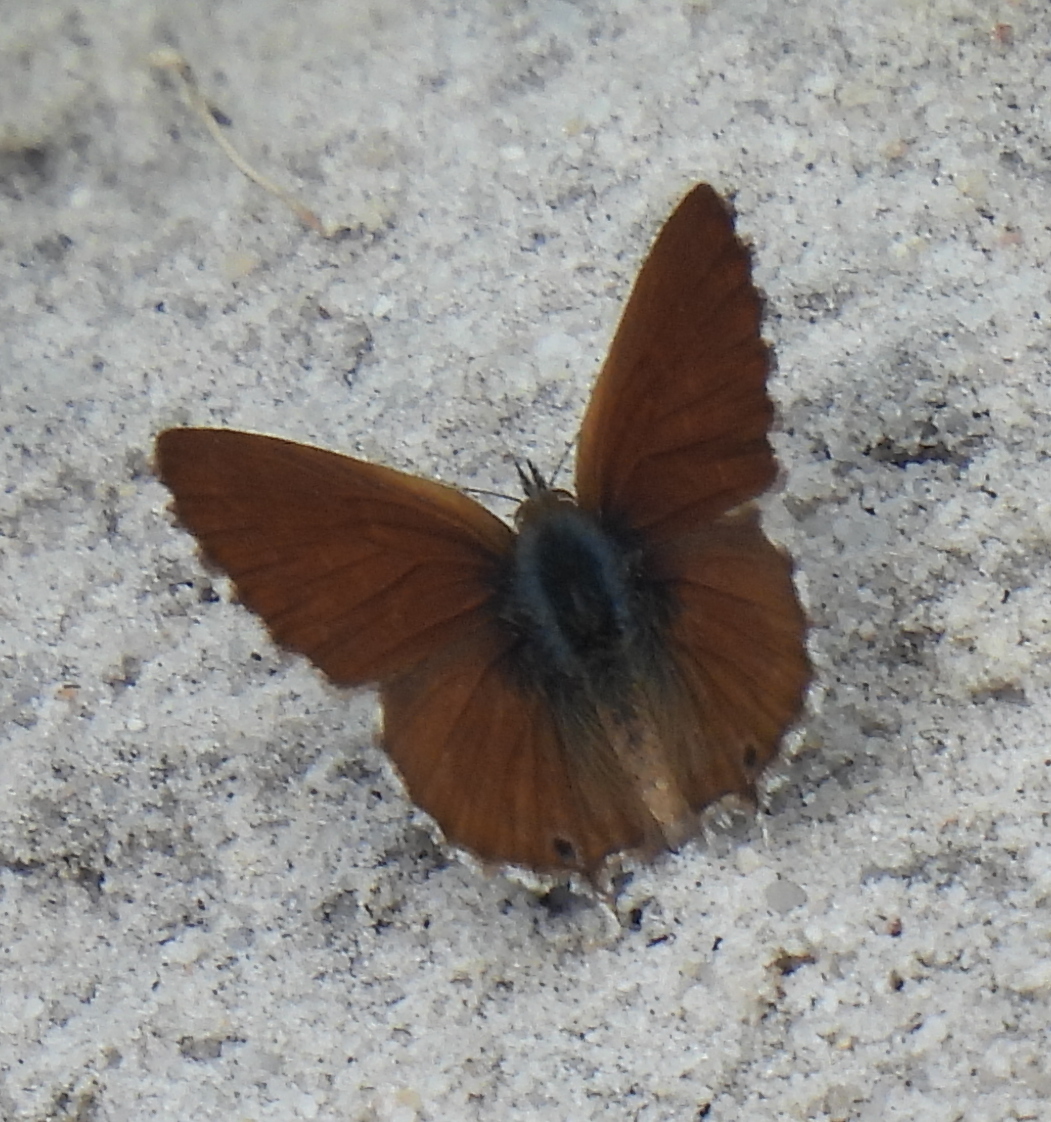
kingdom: Animalia
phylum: Arthropoda
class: Insecta
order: Lepidoptera
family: Lycaenidae
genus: Cacyreus
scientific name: Cacyreus fracta
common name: Water bronze
